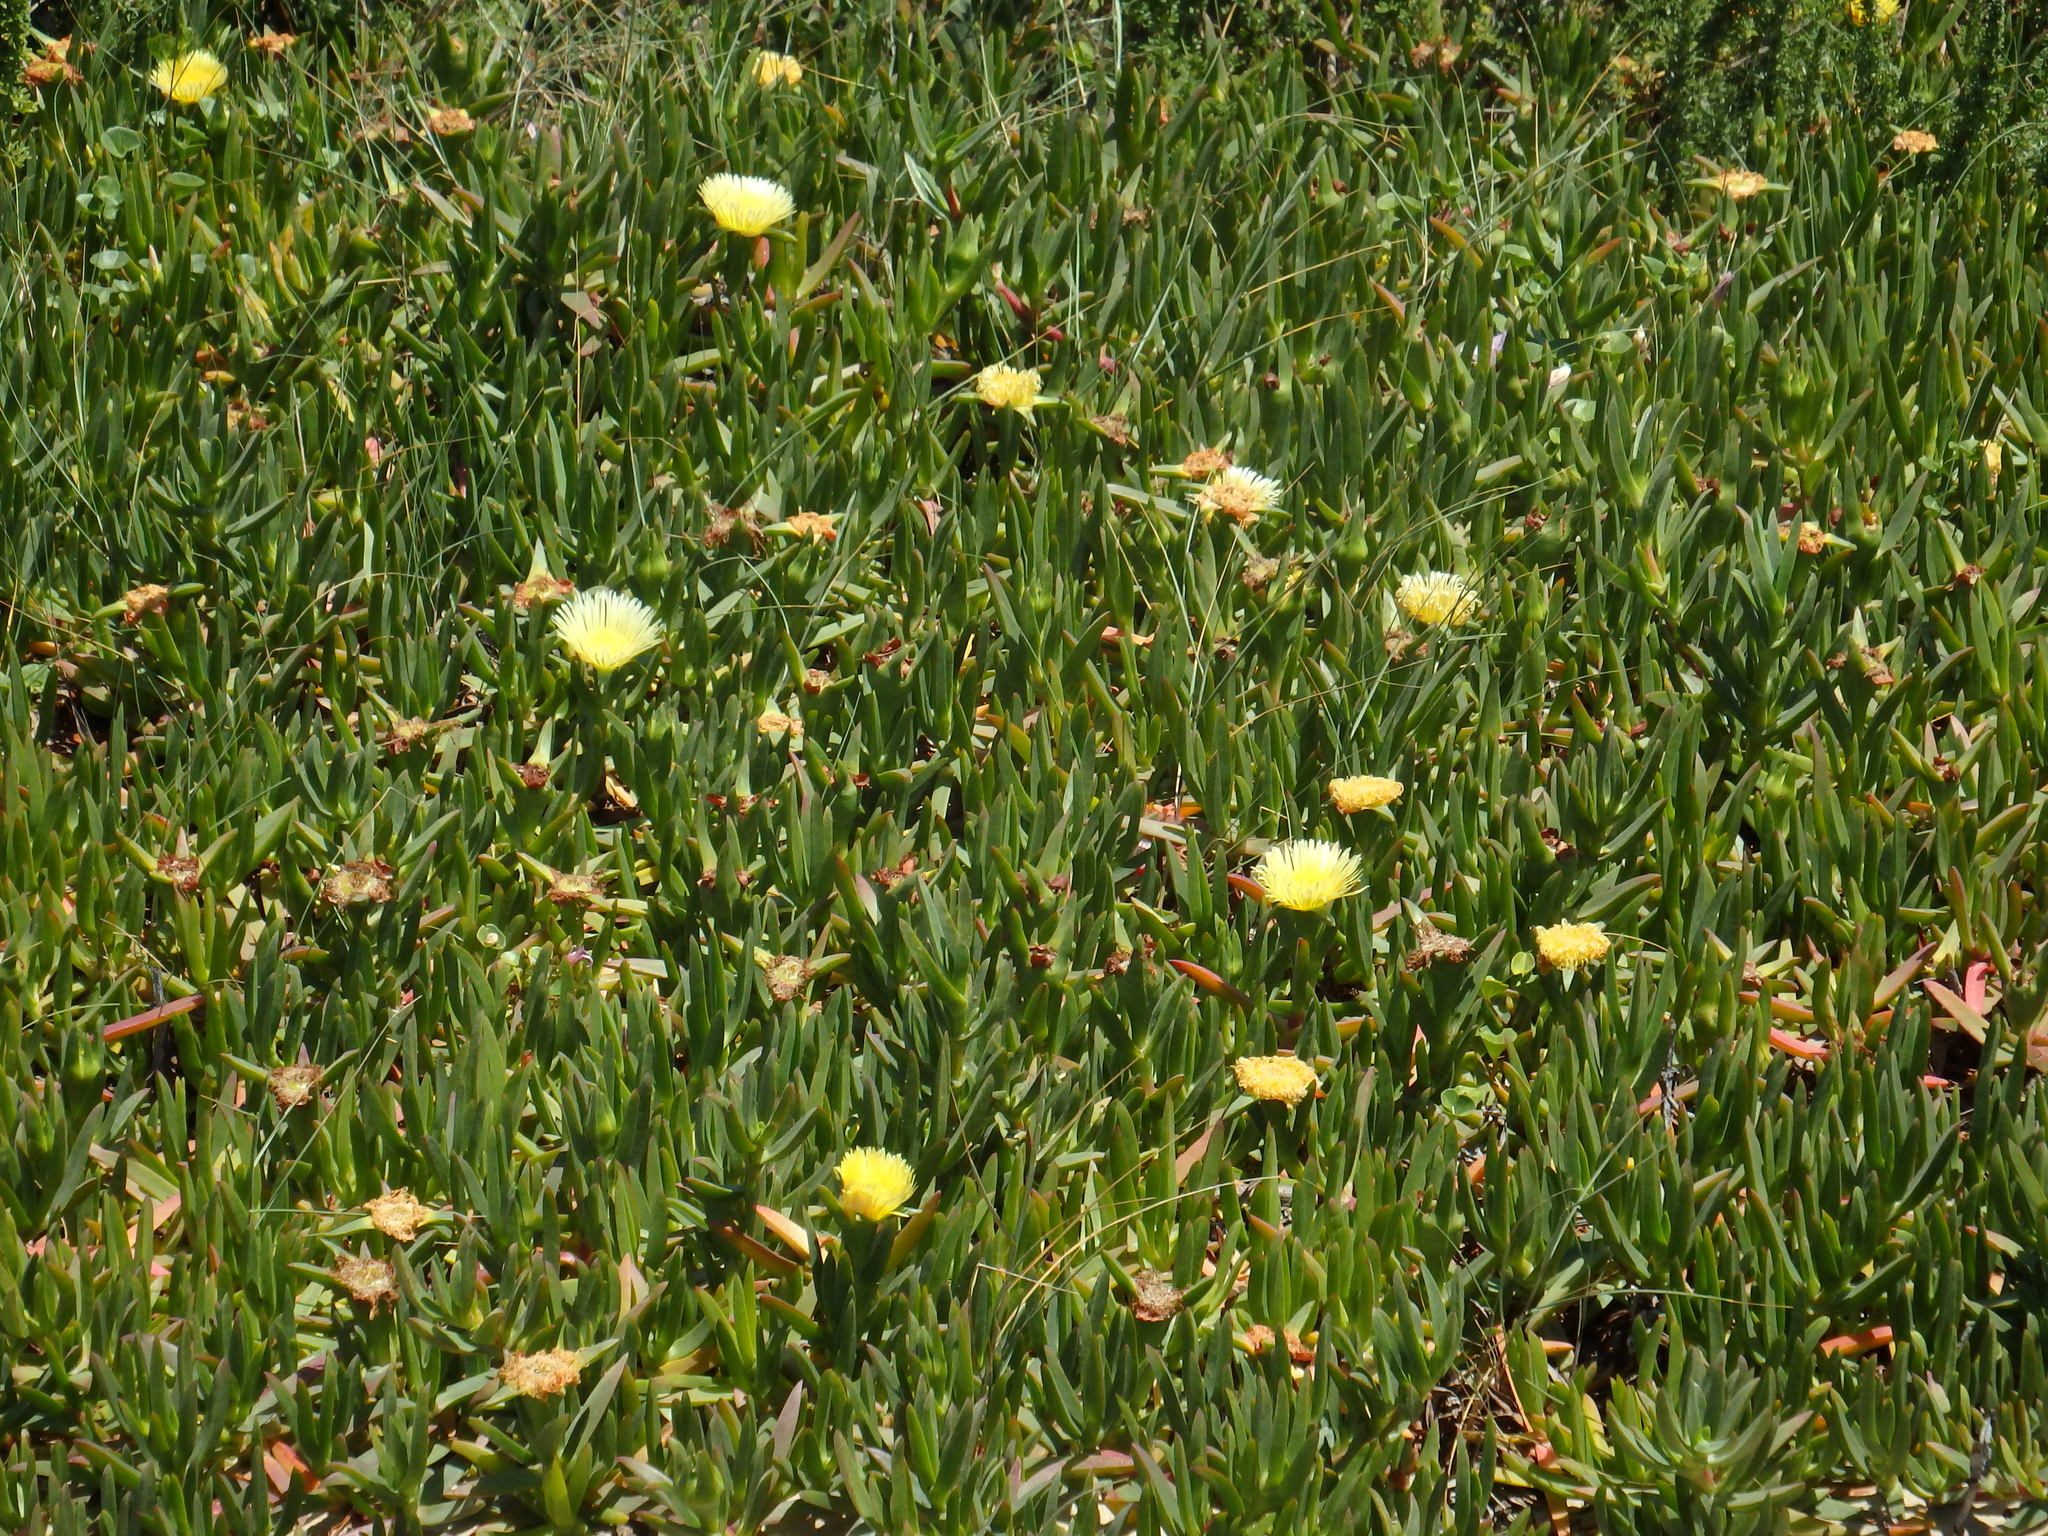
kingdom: Plantae
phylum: Tracheophyta
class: Magnoliopsida
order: Caryophyllales
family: Aizoaceae
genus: Carpobrotus
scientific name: Carpobrotus edulis
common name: Hottentot-fig
